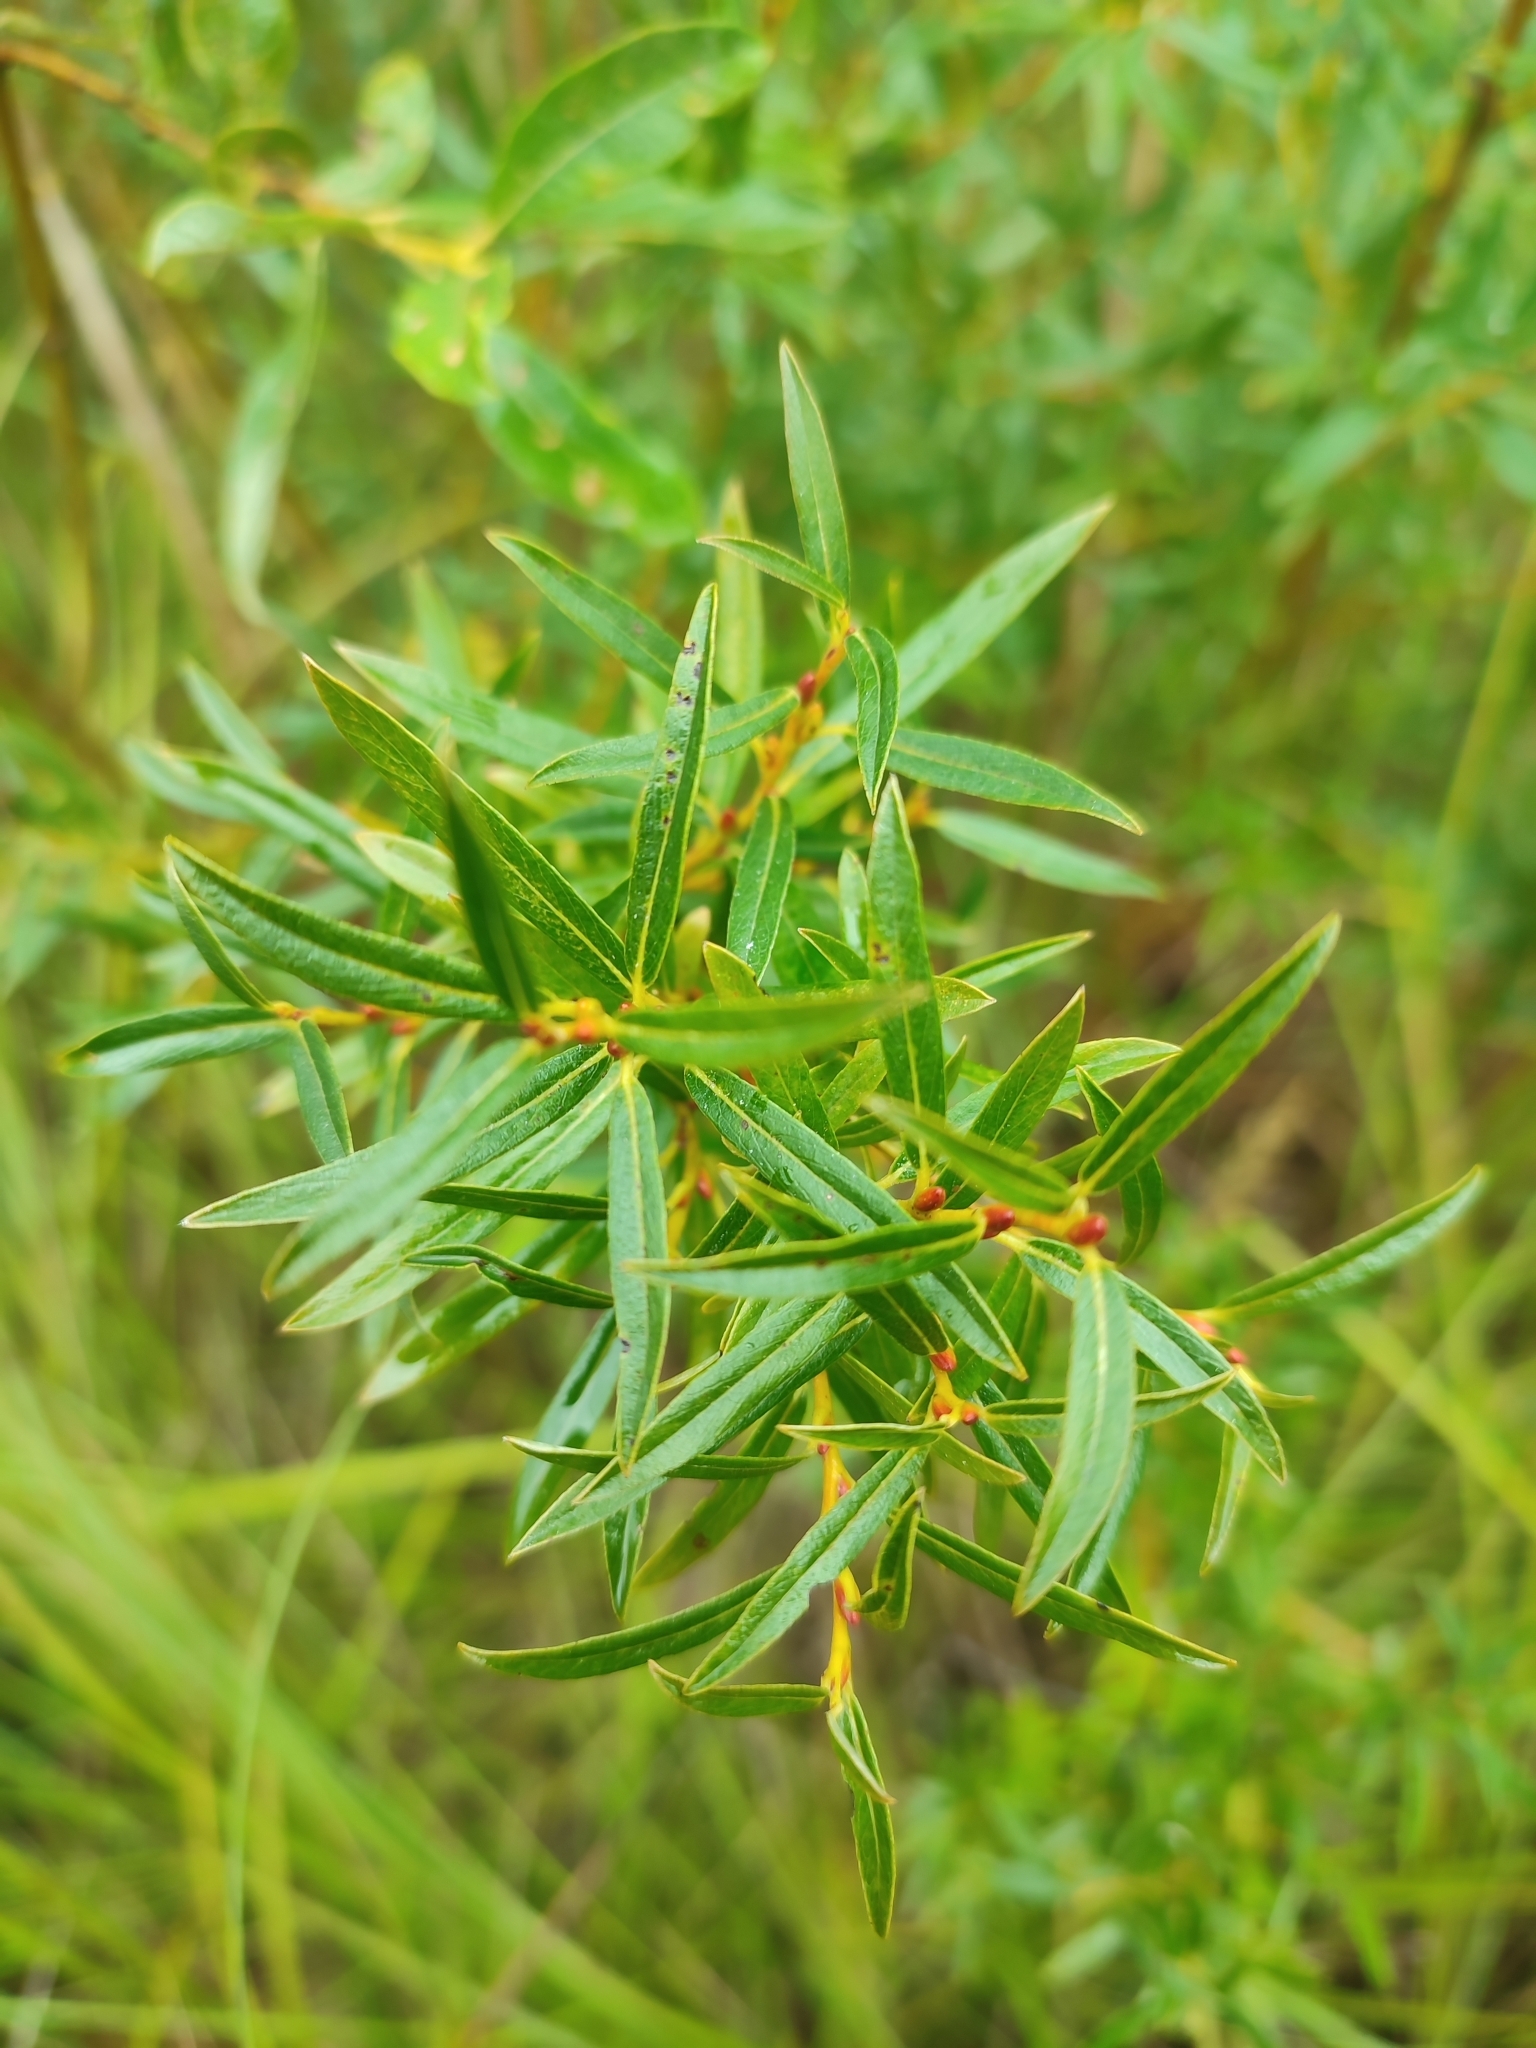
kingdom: Plantae
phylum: Tracheophyta
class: Magnoliopsida
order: Malpighiales
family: Salicaceae
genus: Salix
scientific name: Salix rosmarinifolia
